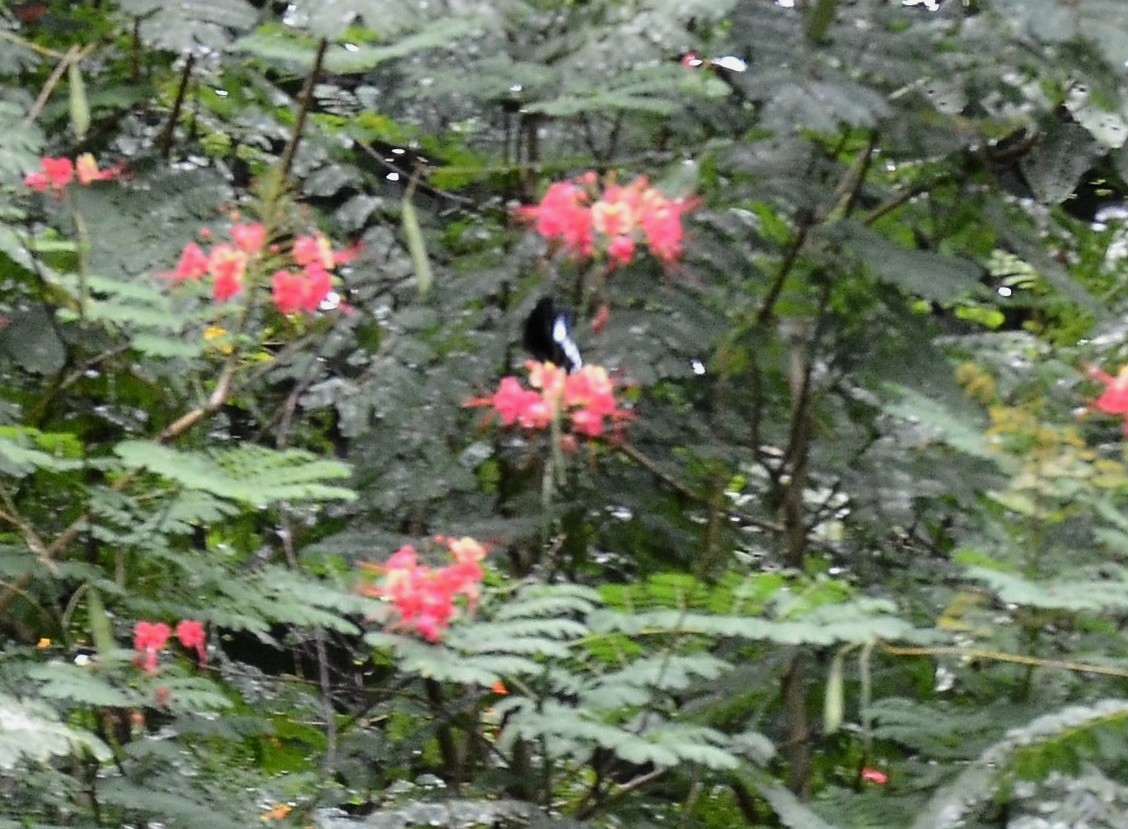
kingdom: Animalia
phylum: Arthropoda
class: Insecta
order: Lepidoptera
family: Papilionidae
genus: Papilio
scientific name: Papilio memnon
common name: Great mormon
